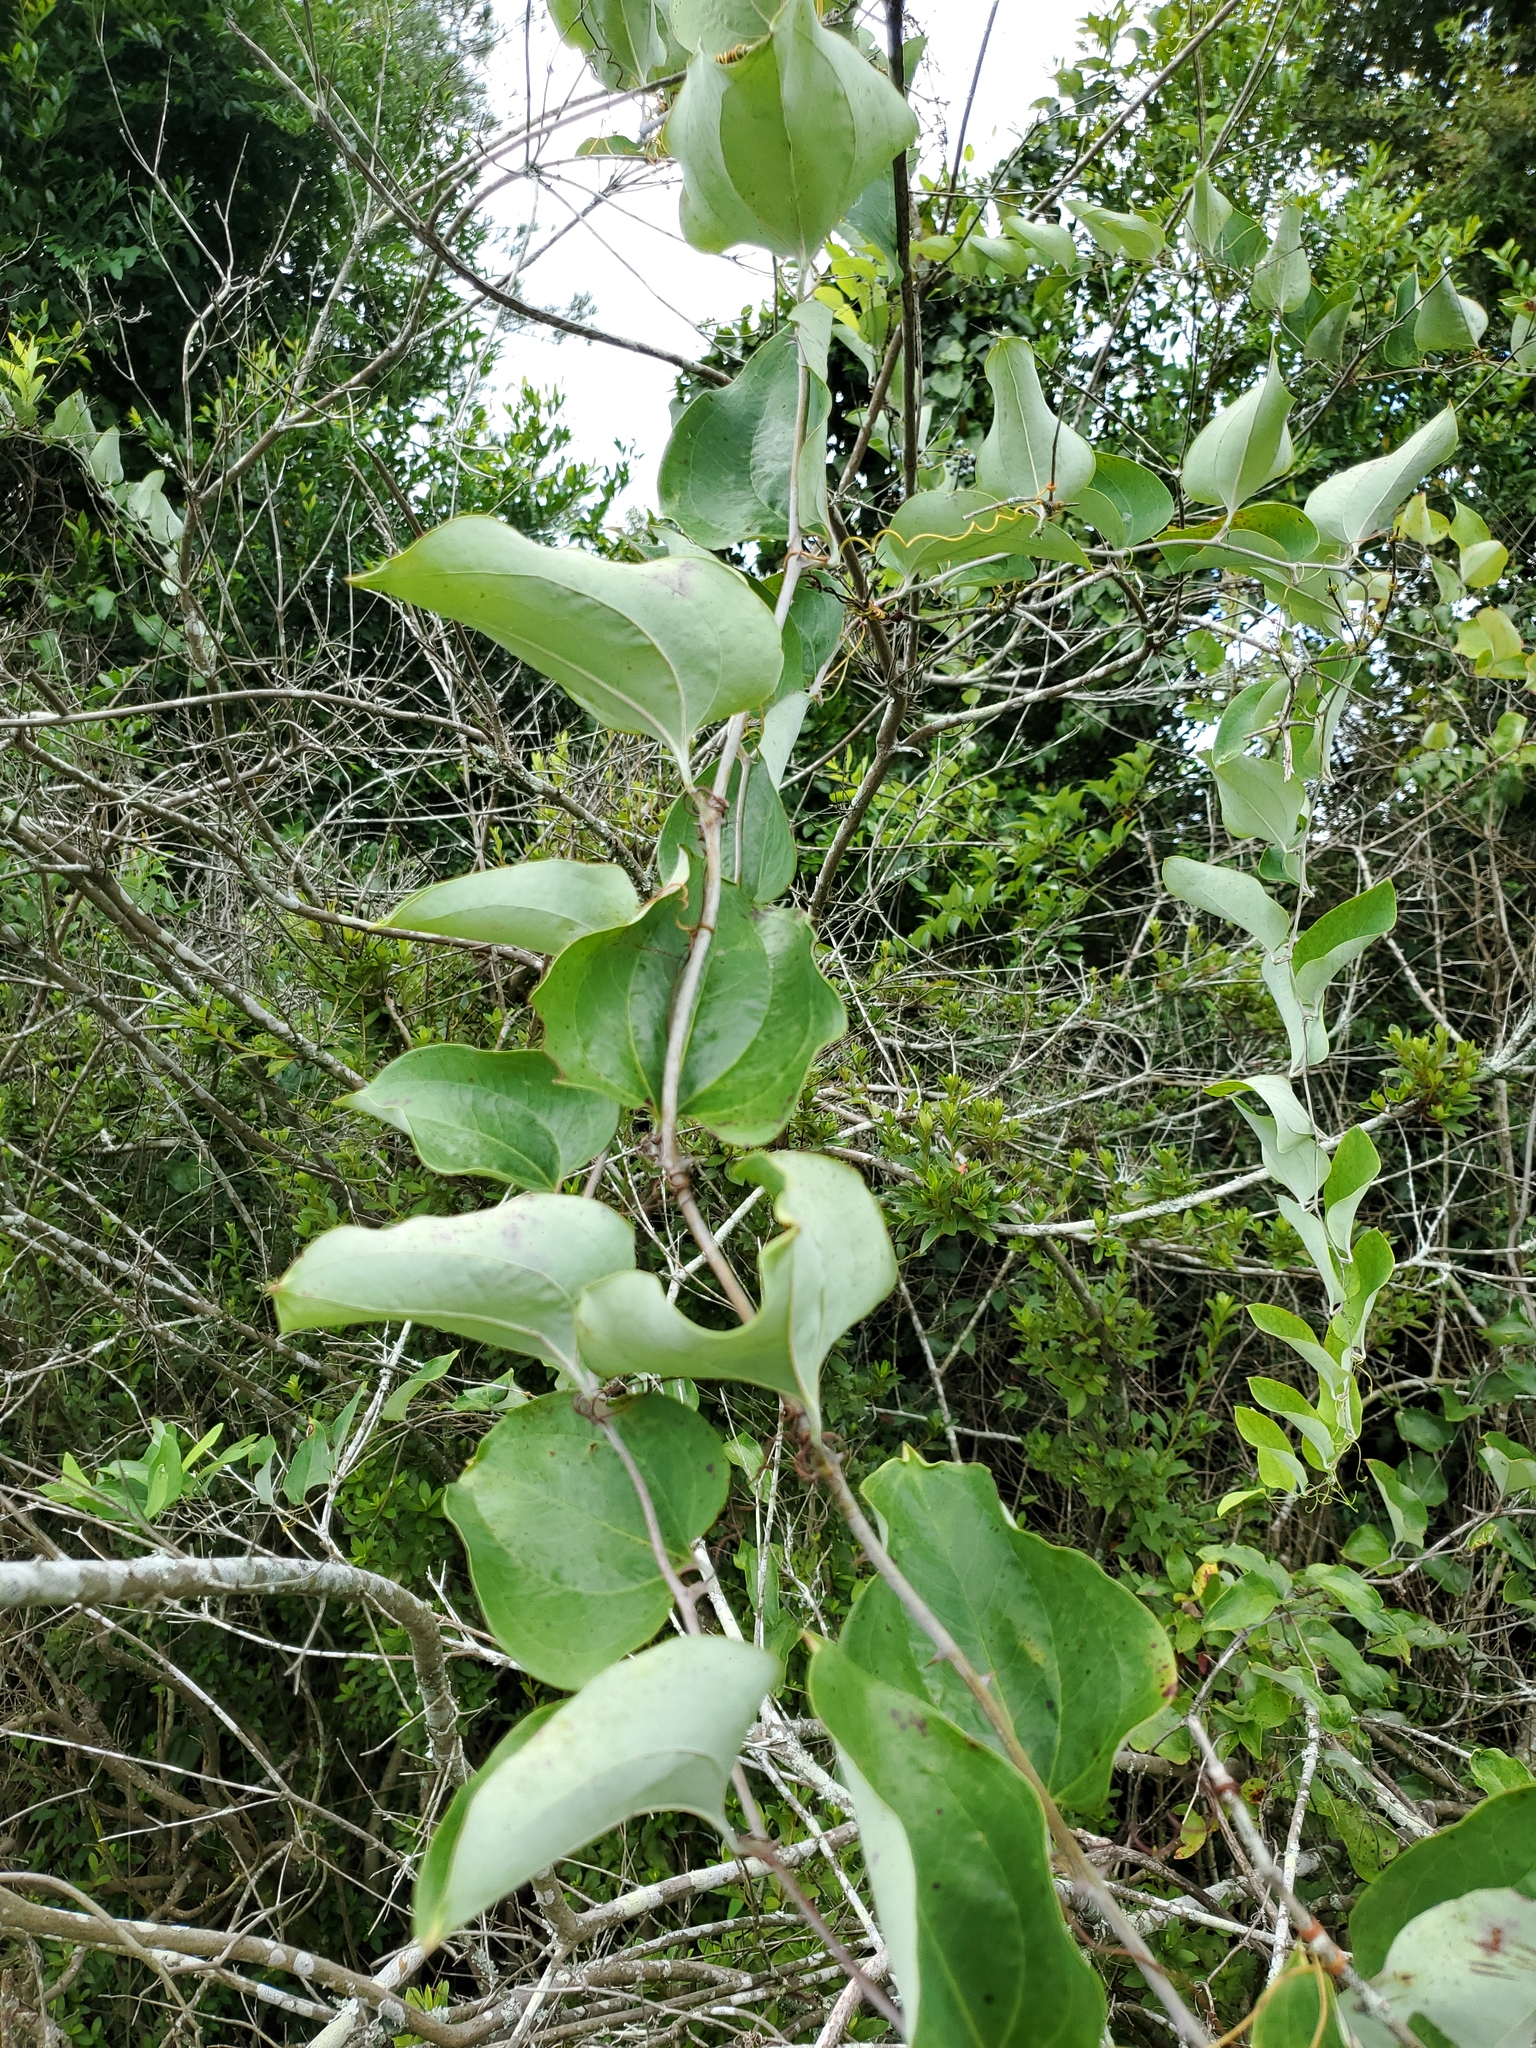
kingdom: Plantae
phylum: Tracheophyta
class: Liliopsida
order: Liliales
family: Smilacaceae
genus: Smilax
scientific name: Smilax glauca
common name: Cat greenbrier
